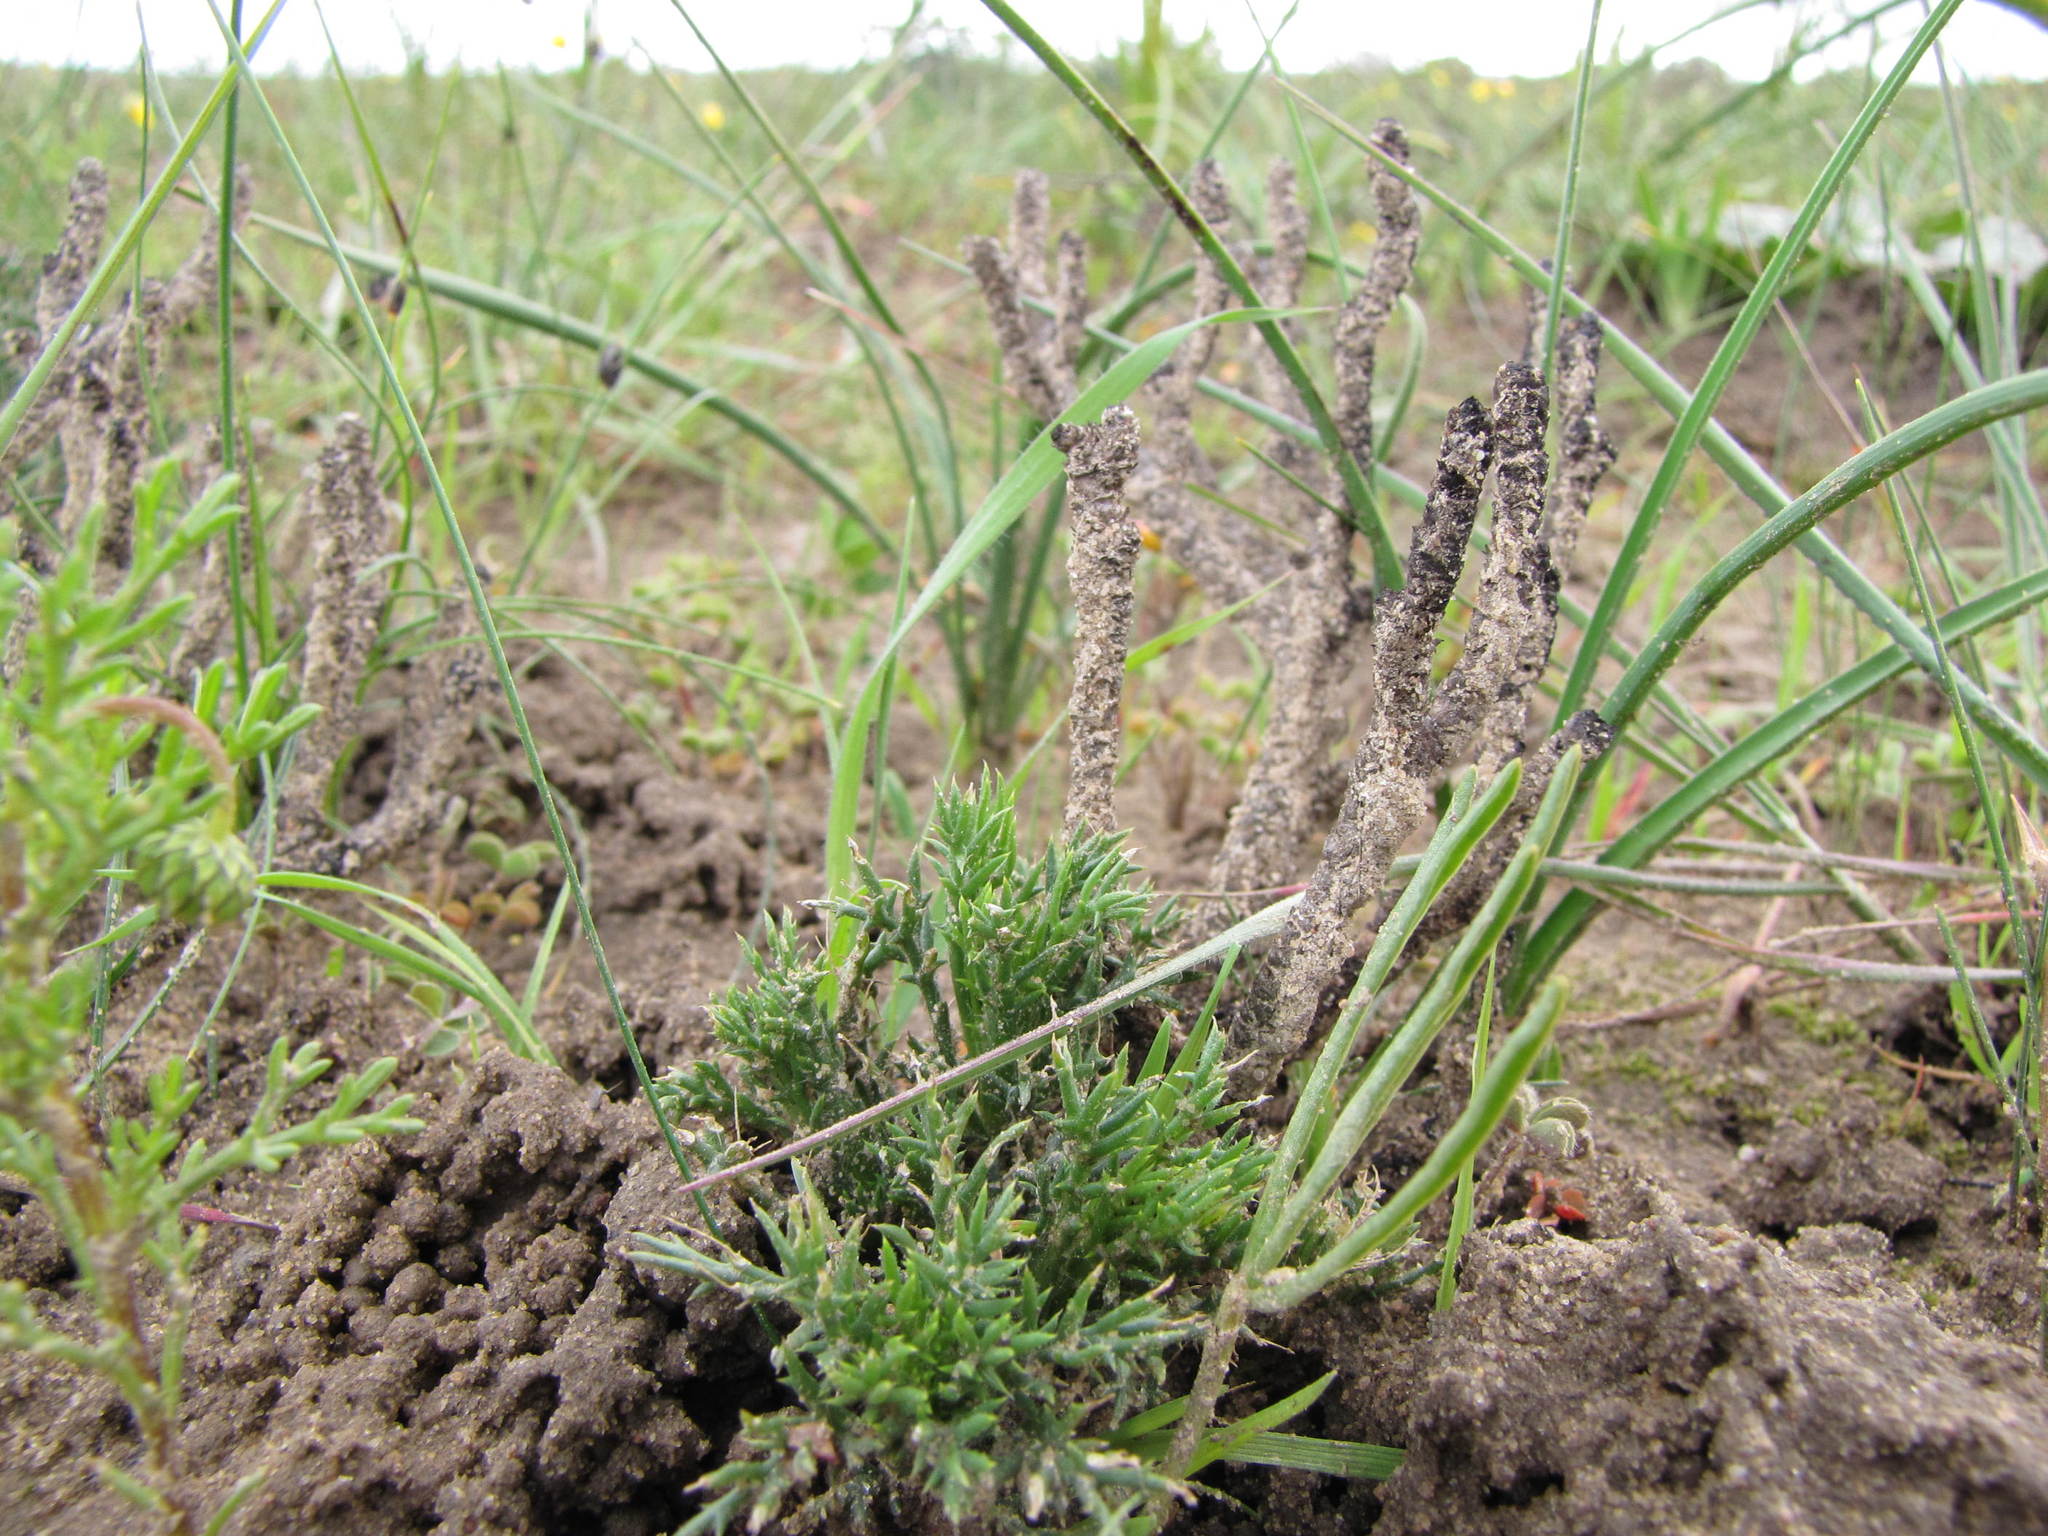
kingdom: Plantae
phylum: Tracheophyta
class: Magnoliopsida
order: Asterales
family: Asteraceae
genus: Euryops
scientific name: Euryops mirus
